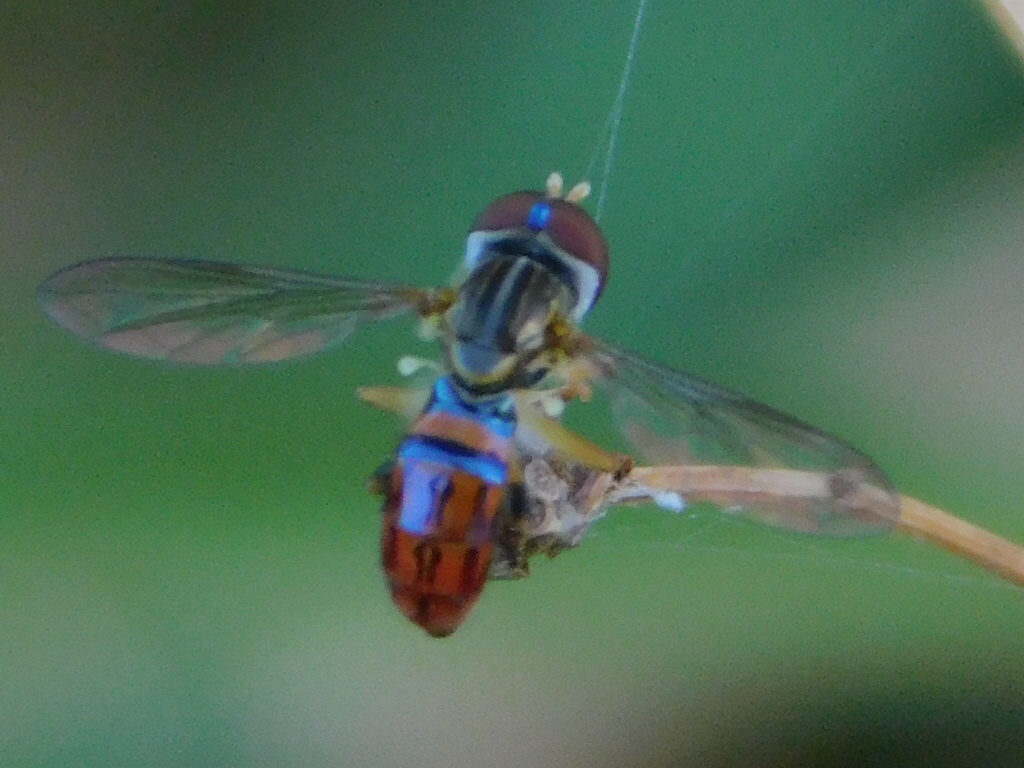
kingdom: Animalia
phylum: Arthropoda
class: Insecta
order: Diptera
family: Syrphidae
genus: Toxomerus
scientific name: Toxomerus boscii
